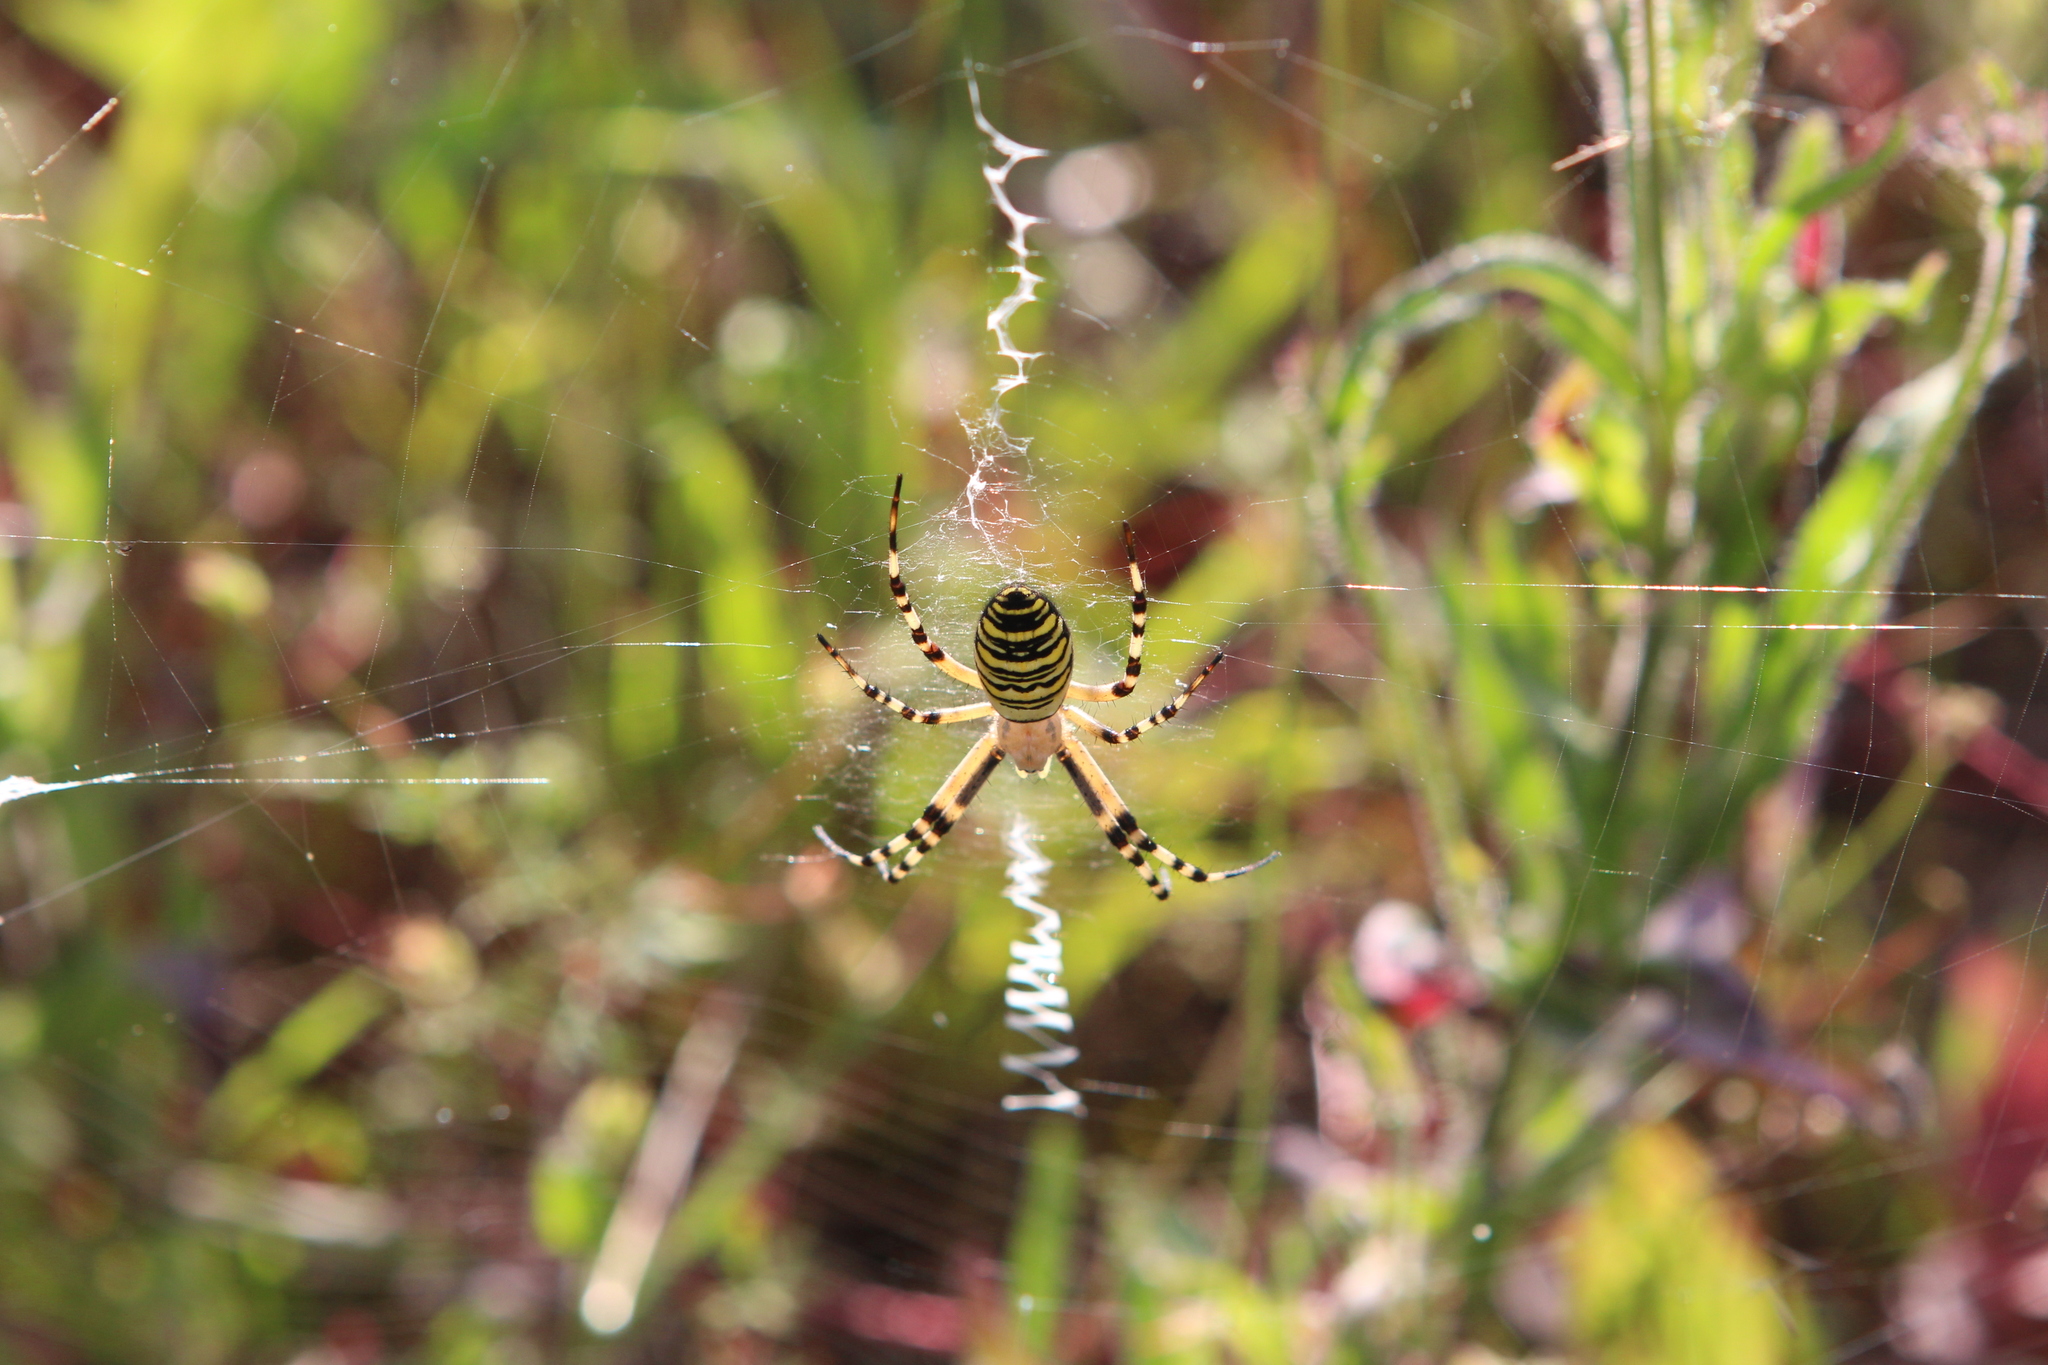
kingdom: Animalia
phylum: Arthropoda
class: Arachnida
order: Araneae
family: Araneidae
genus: Argiope
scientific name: Argiope bruennichi
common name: Wasp spider
